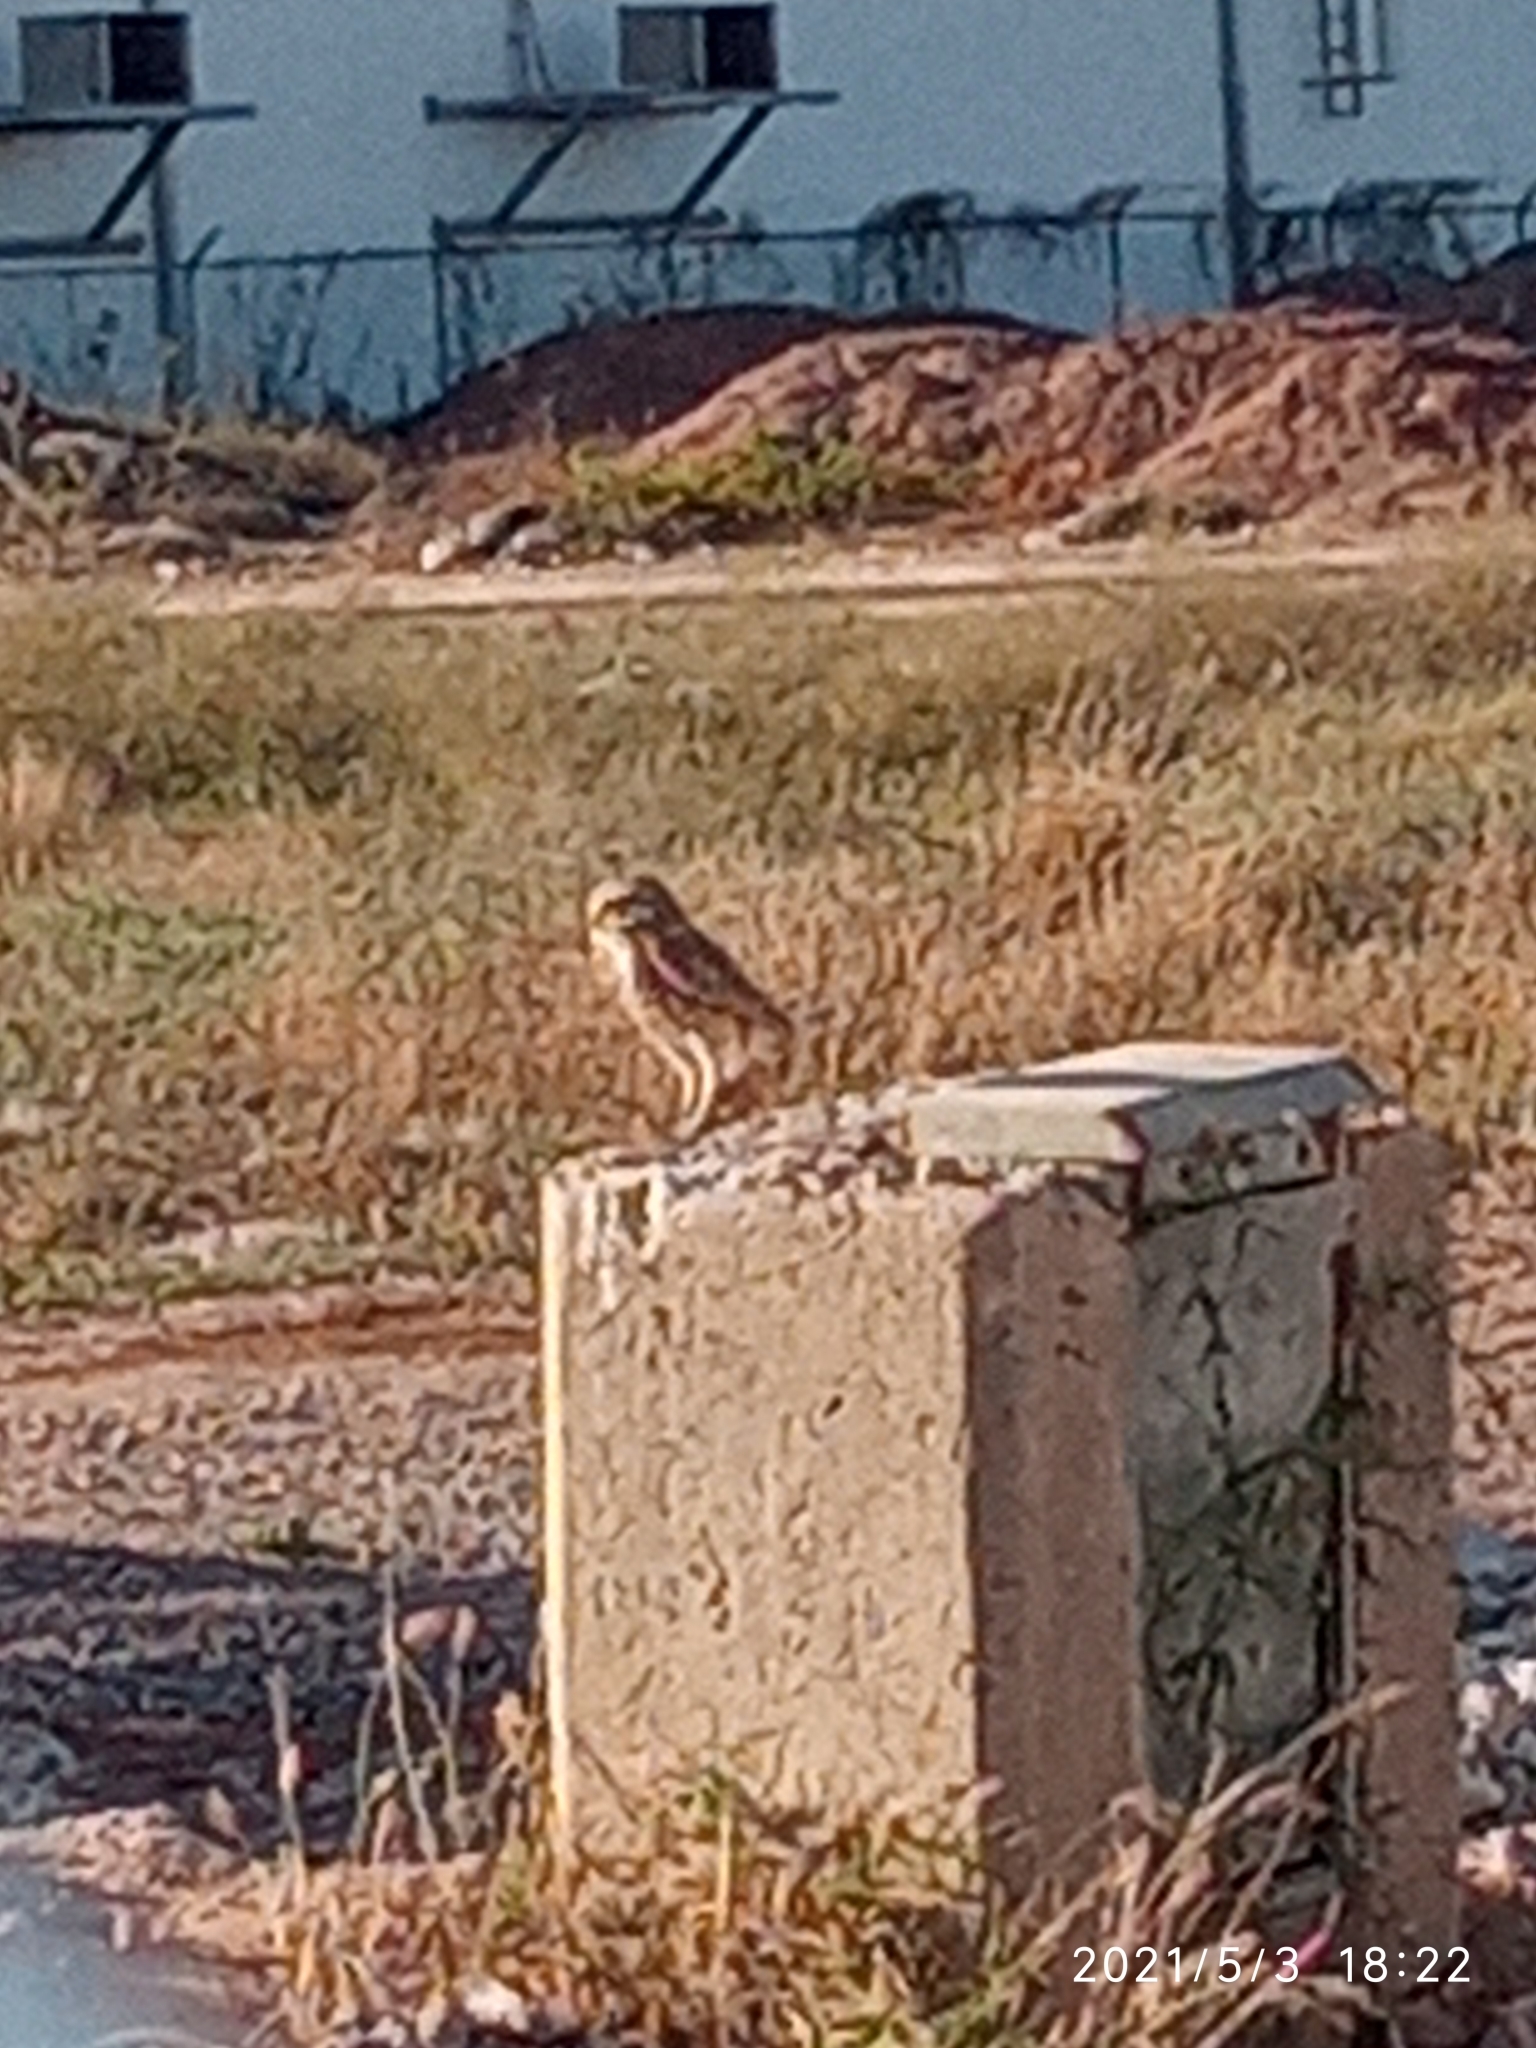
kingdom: Animalia
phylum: Chordata
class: Aves
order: Strigiformes
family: Strigidae
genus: Athene
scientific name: Athene cunicularia
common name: Burrowing owl
